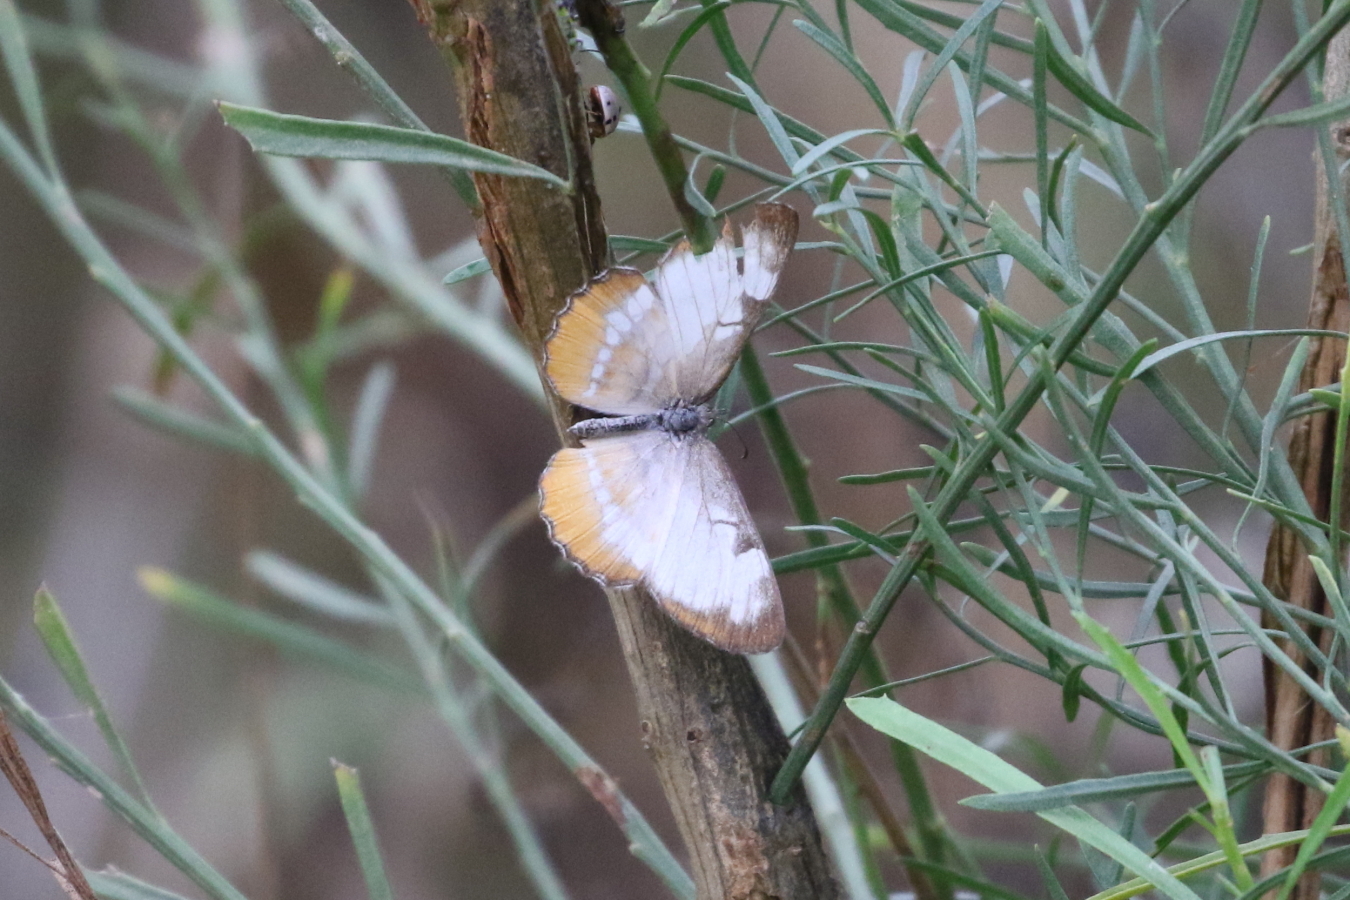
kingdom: Animalia
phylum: Arthropoda
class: Insecta
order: Lepidoptera
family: Nymphalidae
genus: Mestra
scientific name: Mestra amymone
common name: Common mestra
